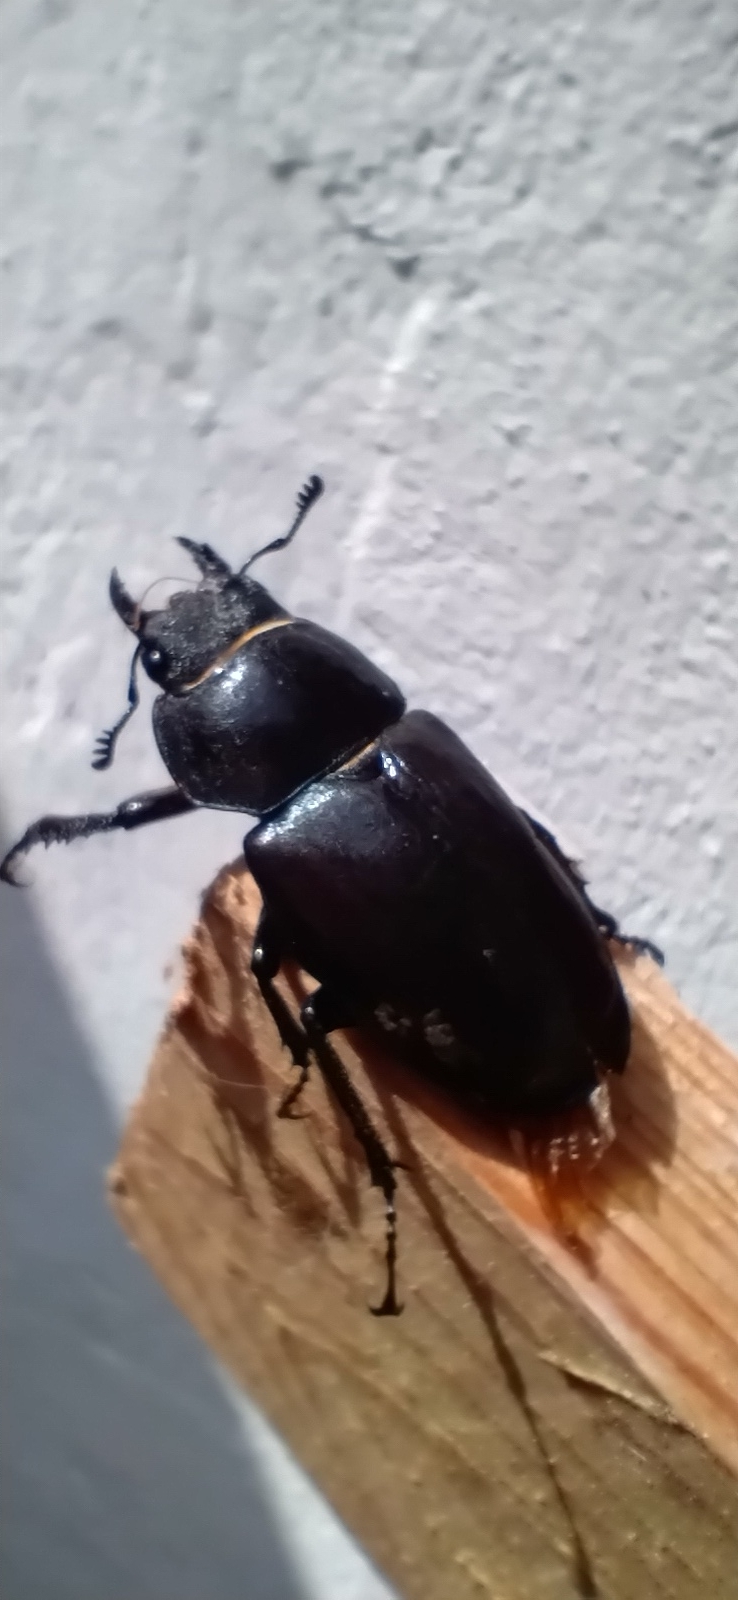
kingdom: Animalia
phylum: Arthropoda
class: Insecta
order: Coleoptera
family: Lucanidae
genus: Lucanus
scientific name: Lucanus cervus
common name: Stag beetle
